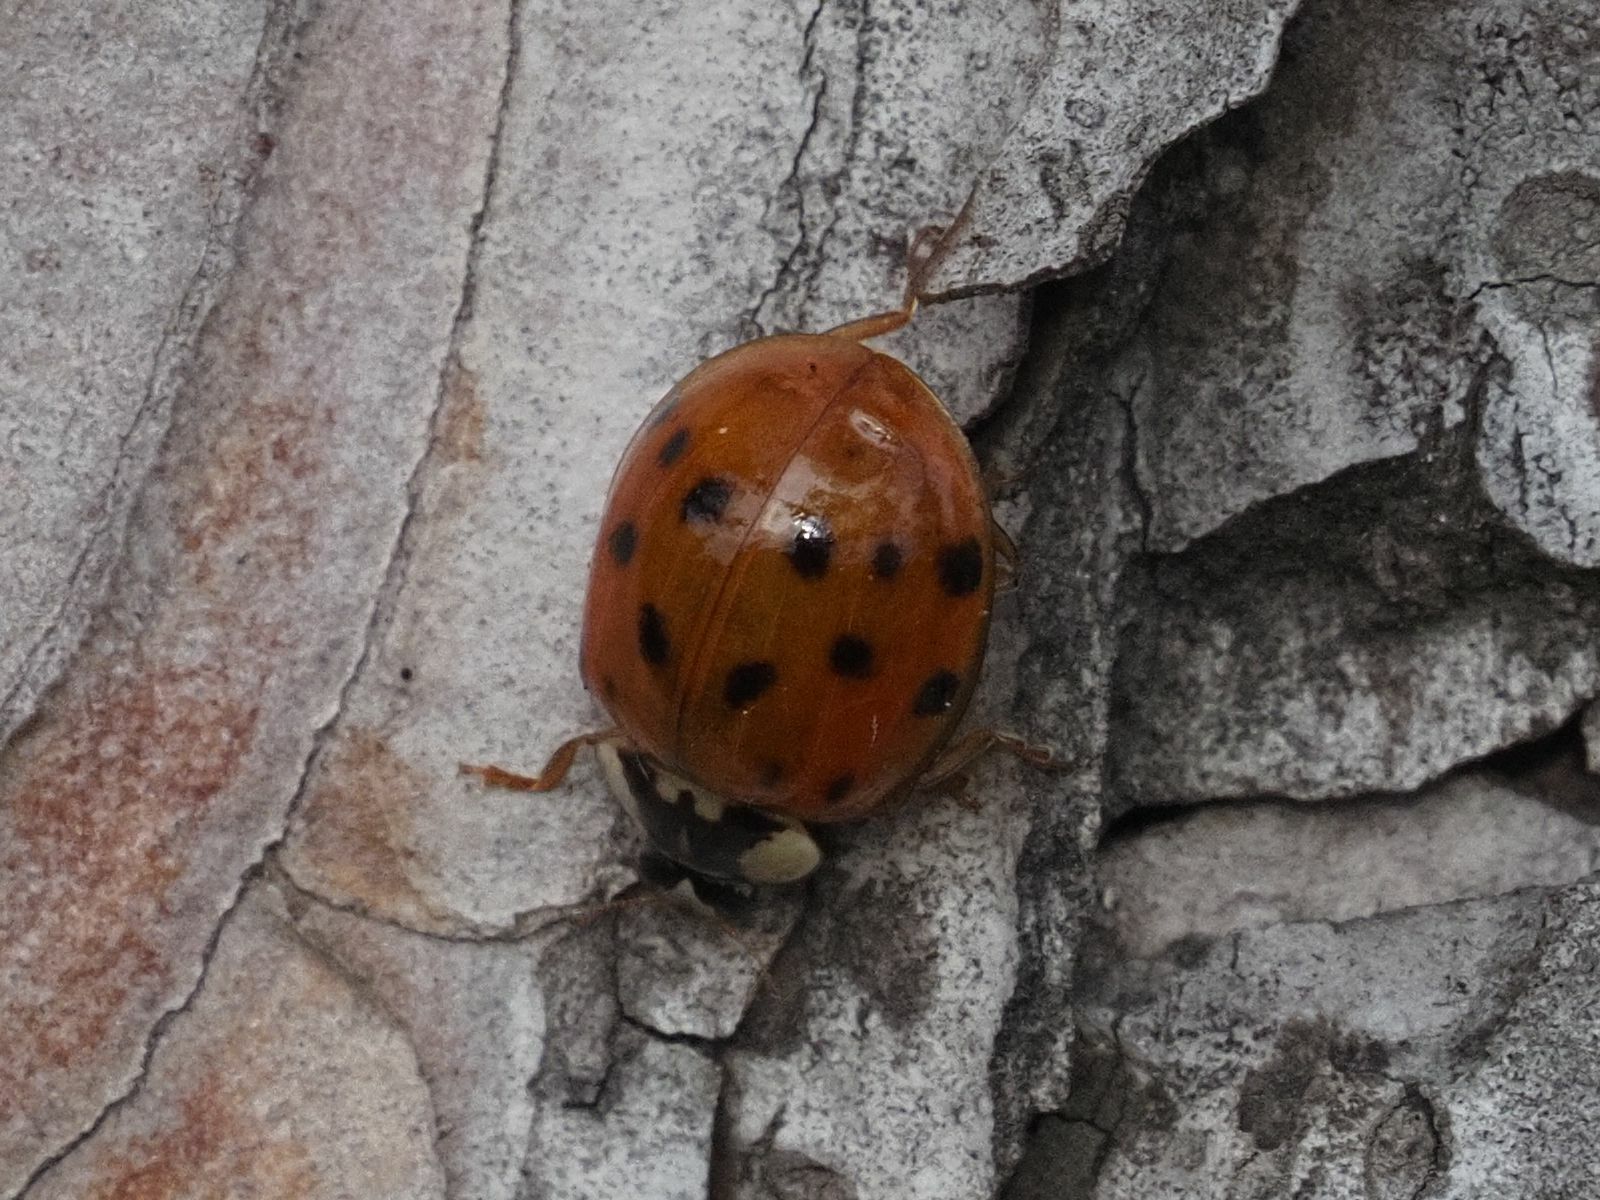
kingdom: Animalia
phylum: Arthropoda
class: Insecta
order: Coleoptera
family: Coccinellidae
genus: Harmonia
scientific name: Harmonia axyridis
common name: Harlequin ladybird
